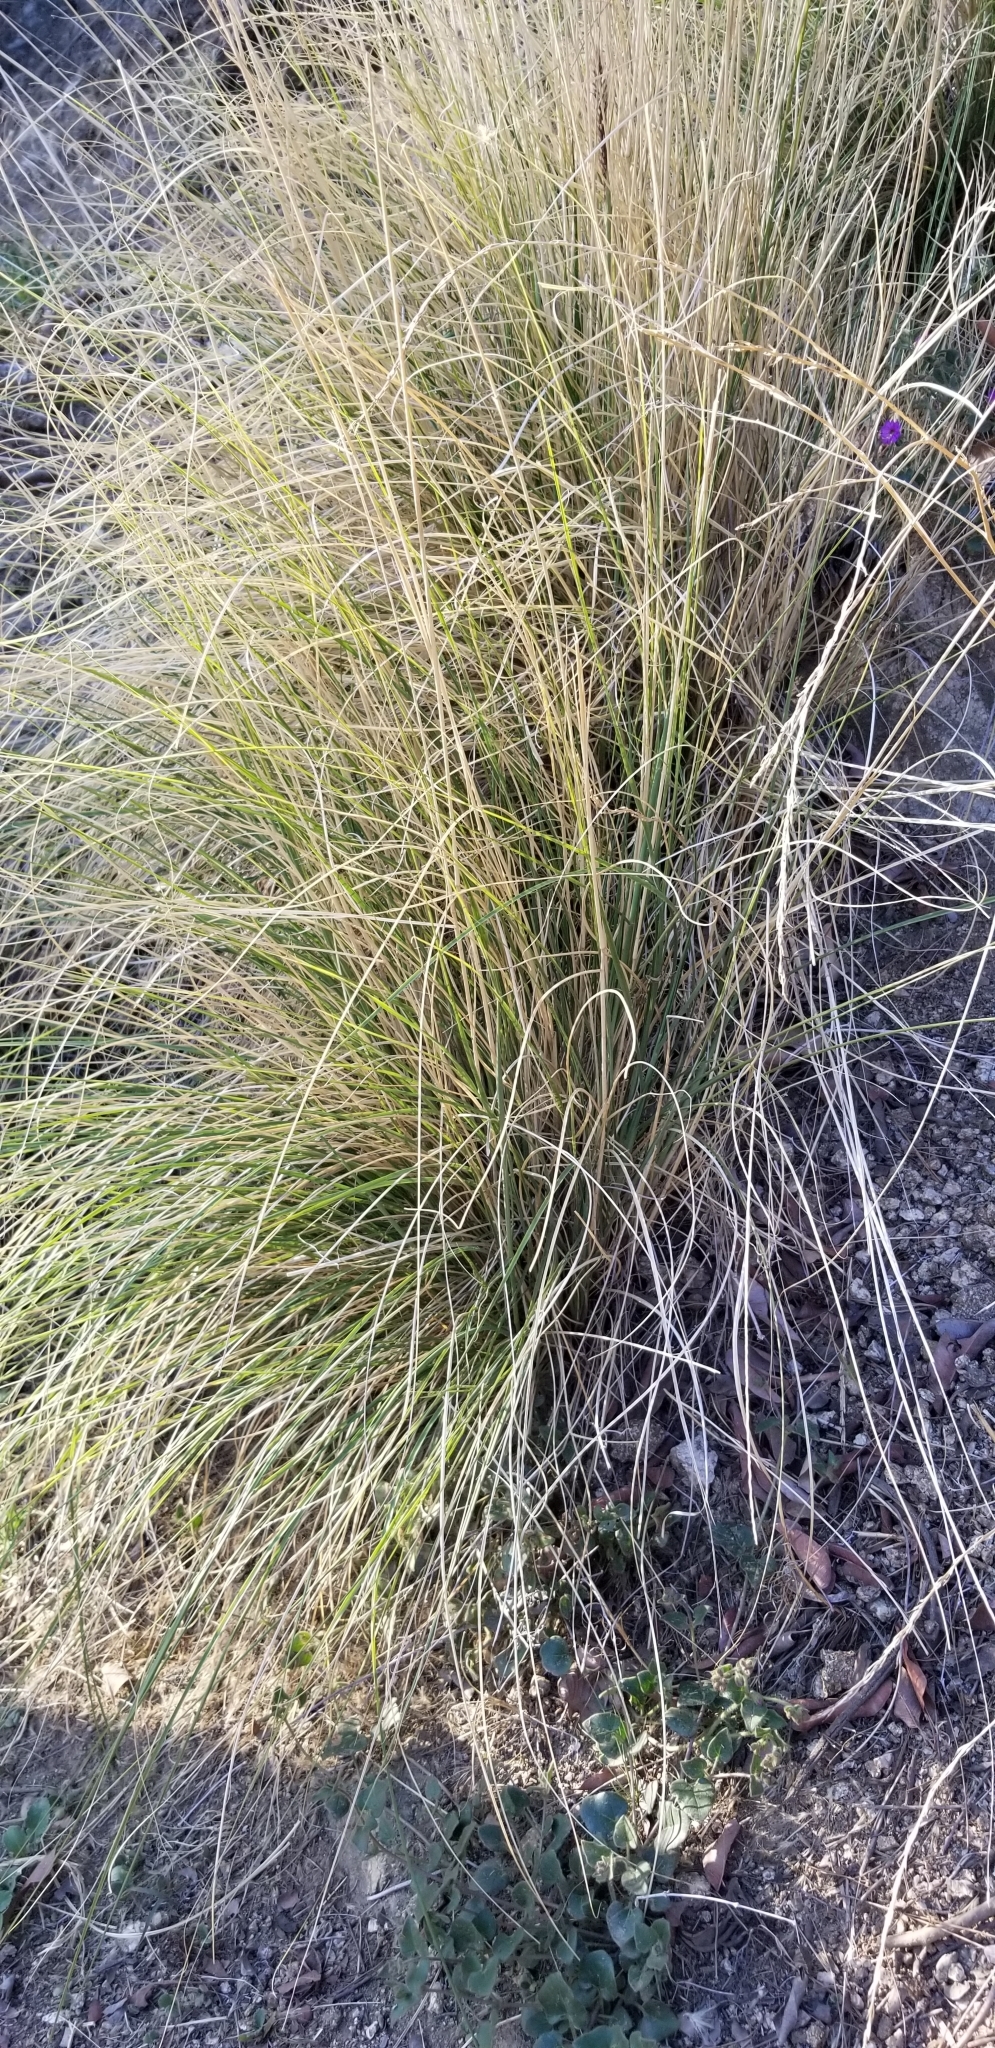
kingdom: Plantae
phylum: Tracheophyta
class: Liliopsida
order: Poales
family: Poaceae
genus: Cenchrus
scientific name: Cenchrus setaceus
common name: Crimson fountaingrass
